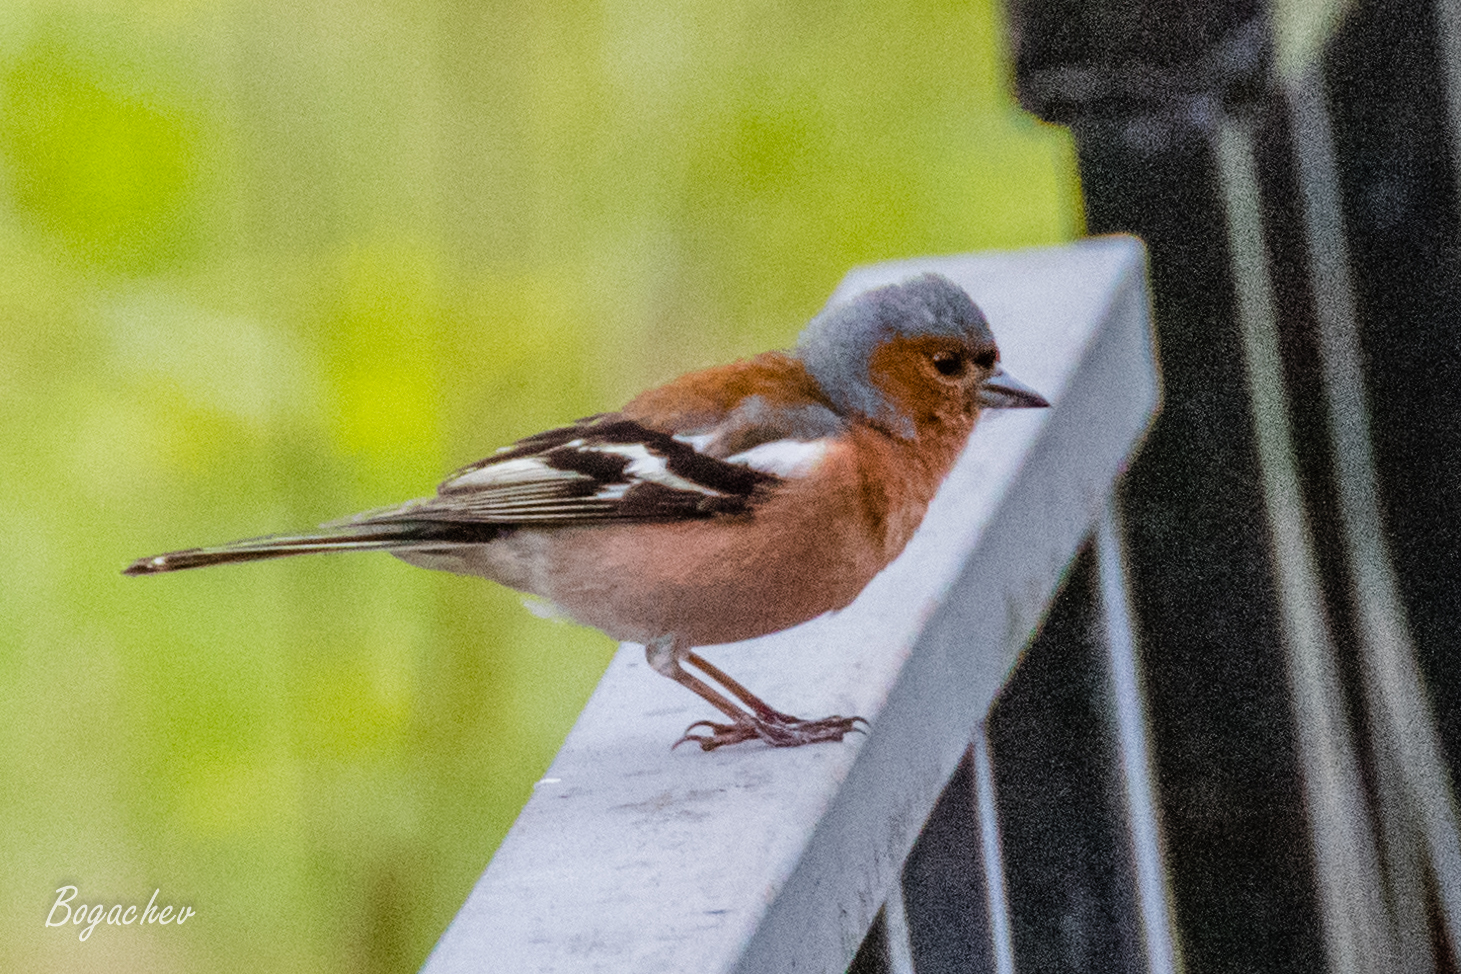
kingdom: Animalia
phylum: Chordata
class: Aves
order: Passeriformes
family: Fringillidae
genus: Fringilla
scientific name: Fringilla coelebs
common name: Common chaffinch
